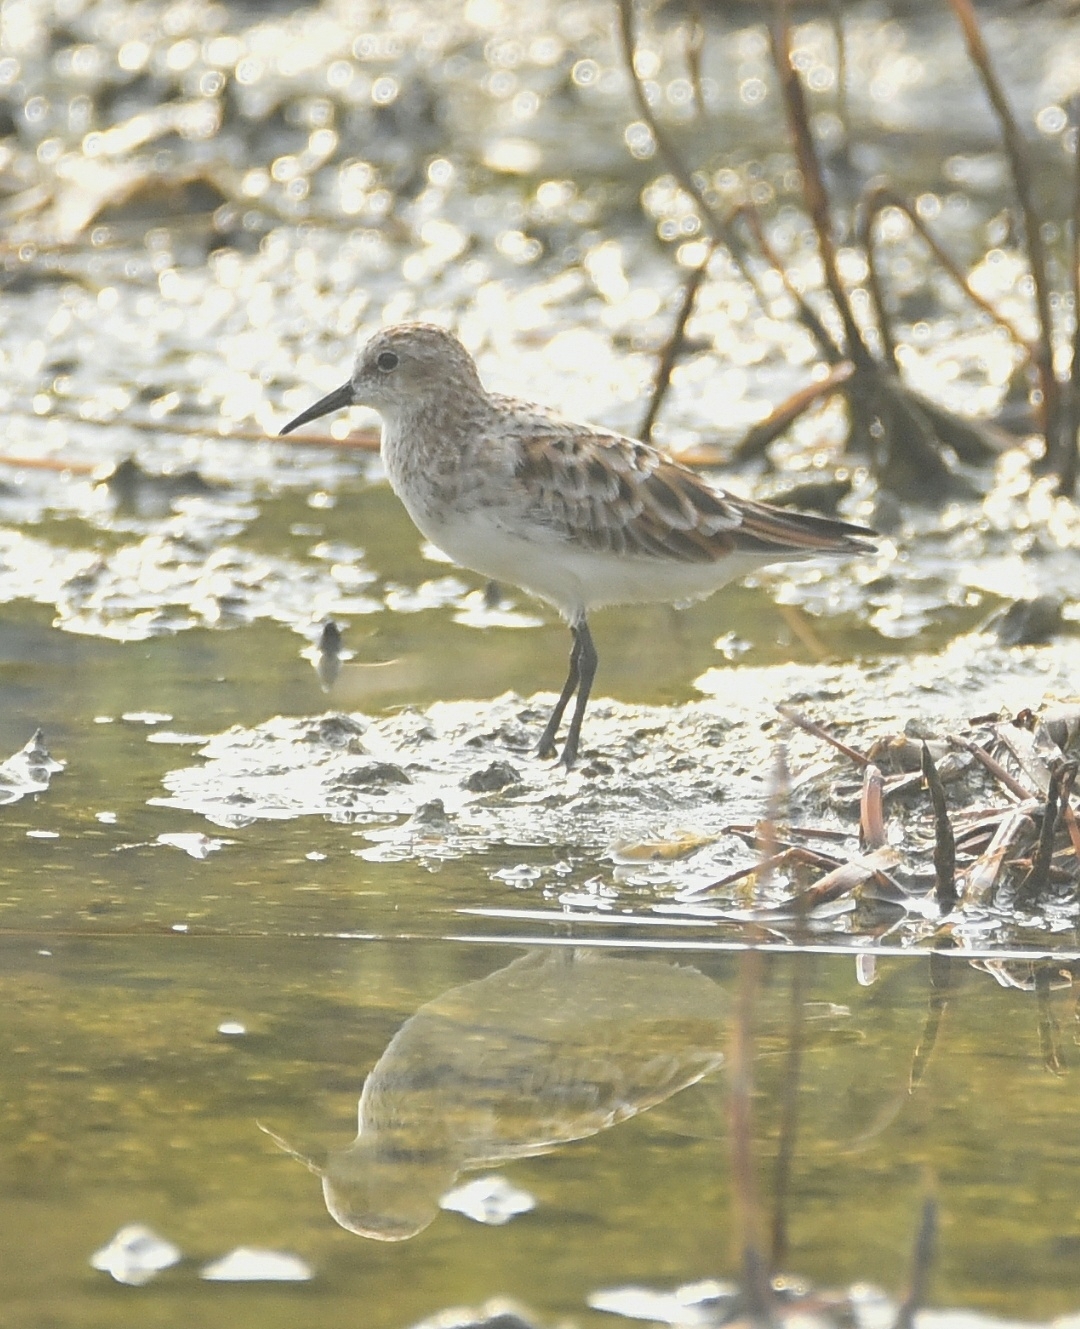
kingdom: Animalia
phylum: Chordata
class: Aves
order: Charadriiformes
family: Scolopacidae
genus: Calidris
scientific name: Calidris minuta
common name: Little stint
